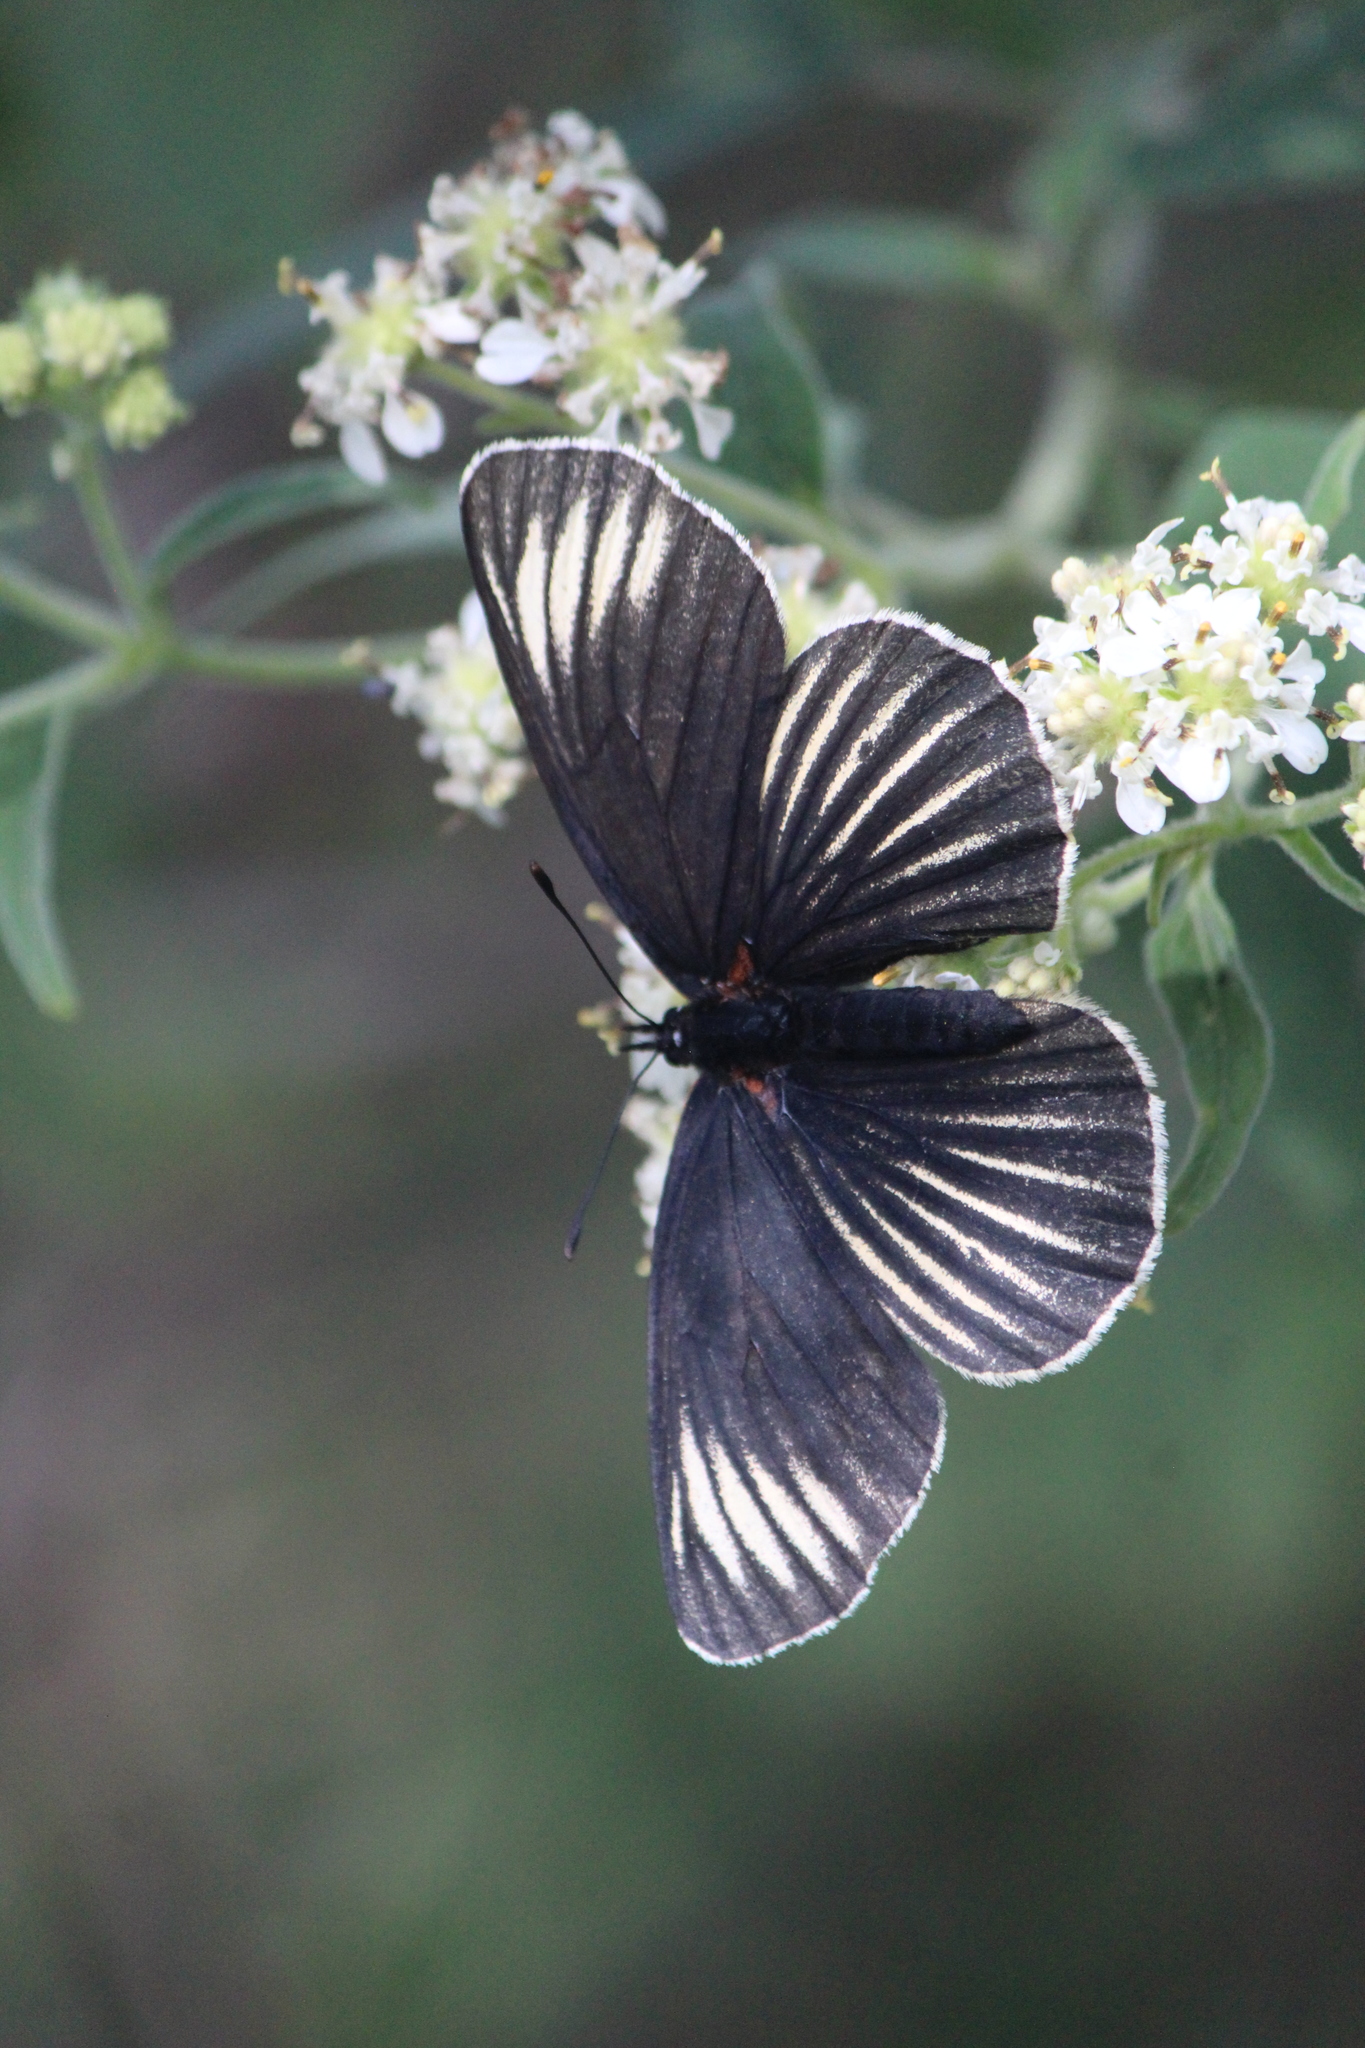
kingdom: Animalia
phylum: Arthropoda
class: Insecta
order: Lepidoptera
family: Nymphalidae
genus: Chlosyne
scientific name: Chlosyne ehrenbergii
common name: White-rayed patch
